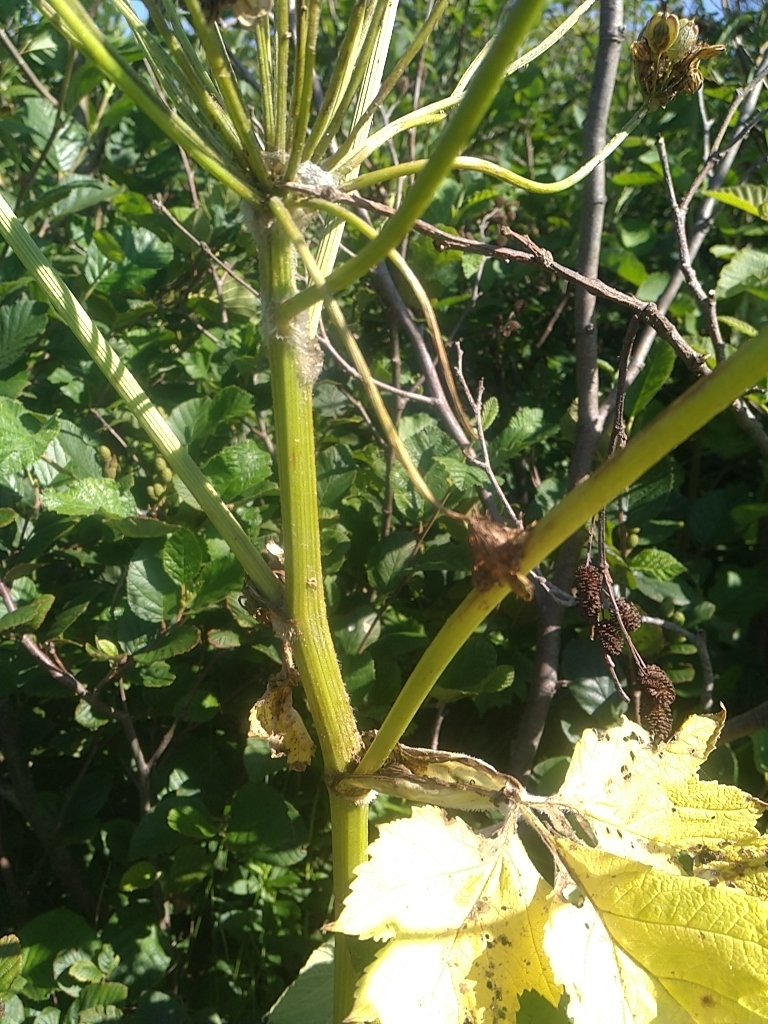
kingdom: Plantae
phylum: Tracheophyta
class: Magnoliopsida
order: Apiales
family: Apiaceae
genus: Heracleum
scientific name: Heracleum maximum
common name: American cow parsnip
